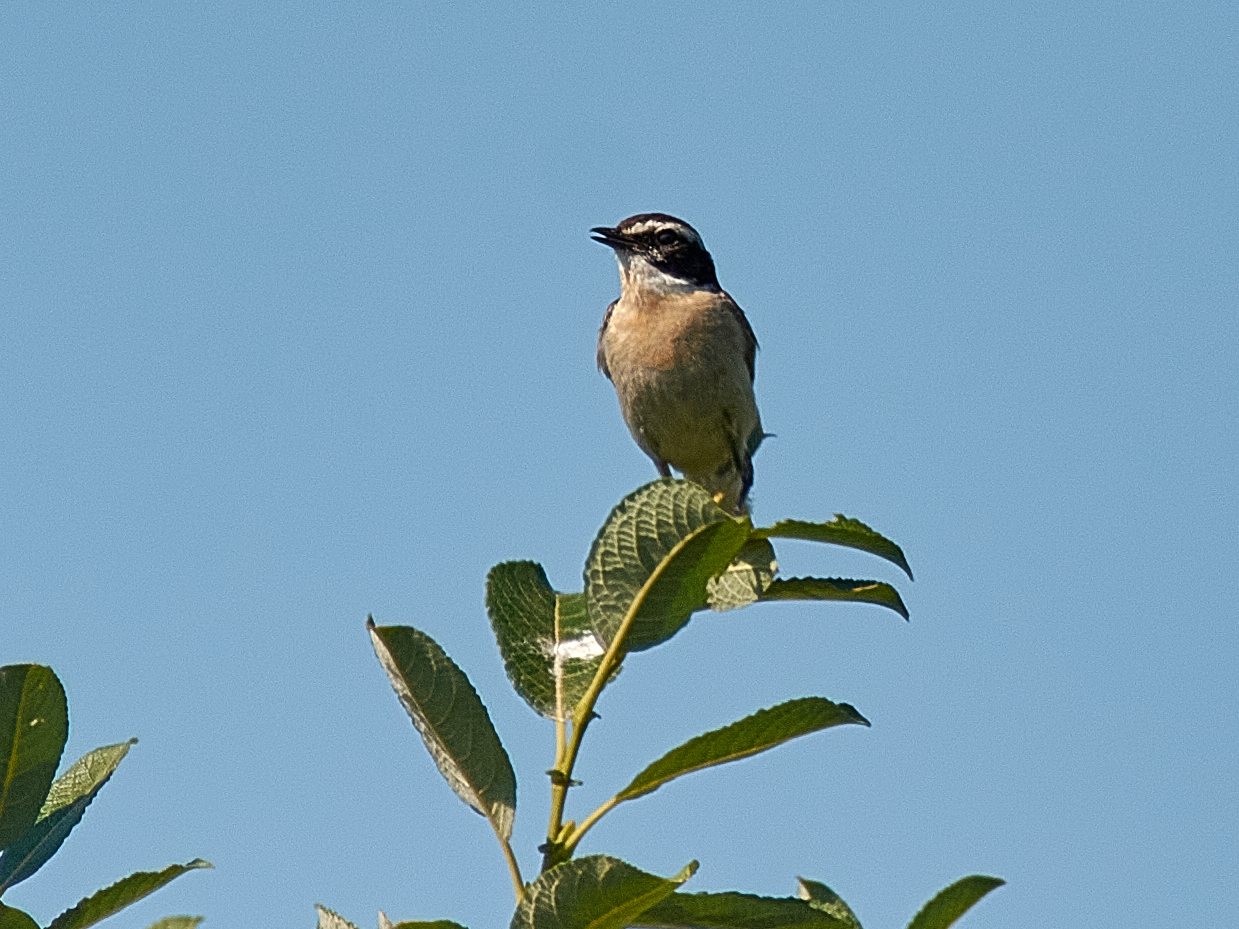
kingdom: Animalia
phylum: Chordata
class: Aves
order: Passeriformes
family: Muscicapidae
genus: Saxicola
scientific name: Saxicola rubetra
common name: Whinchat
